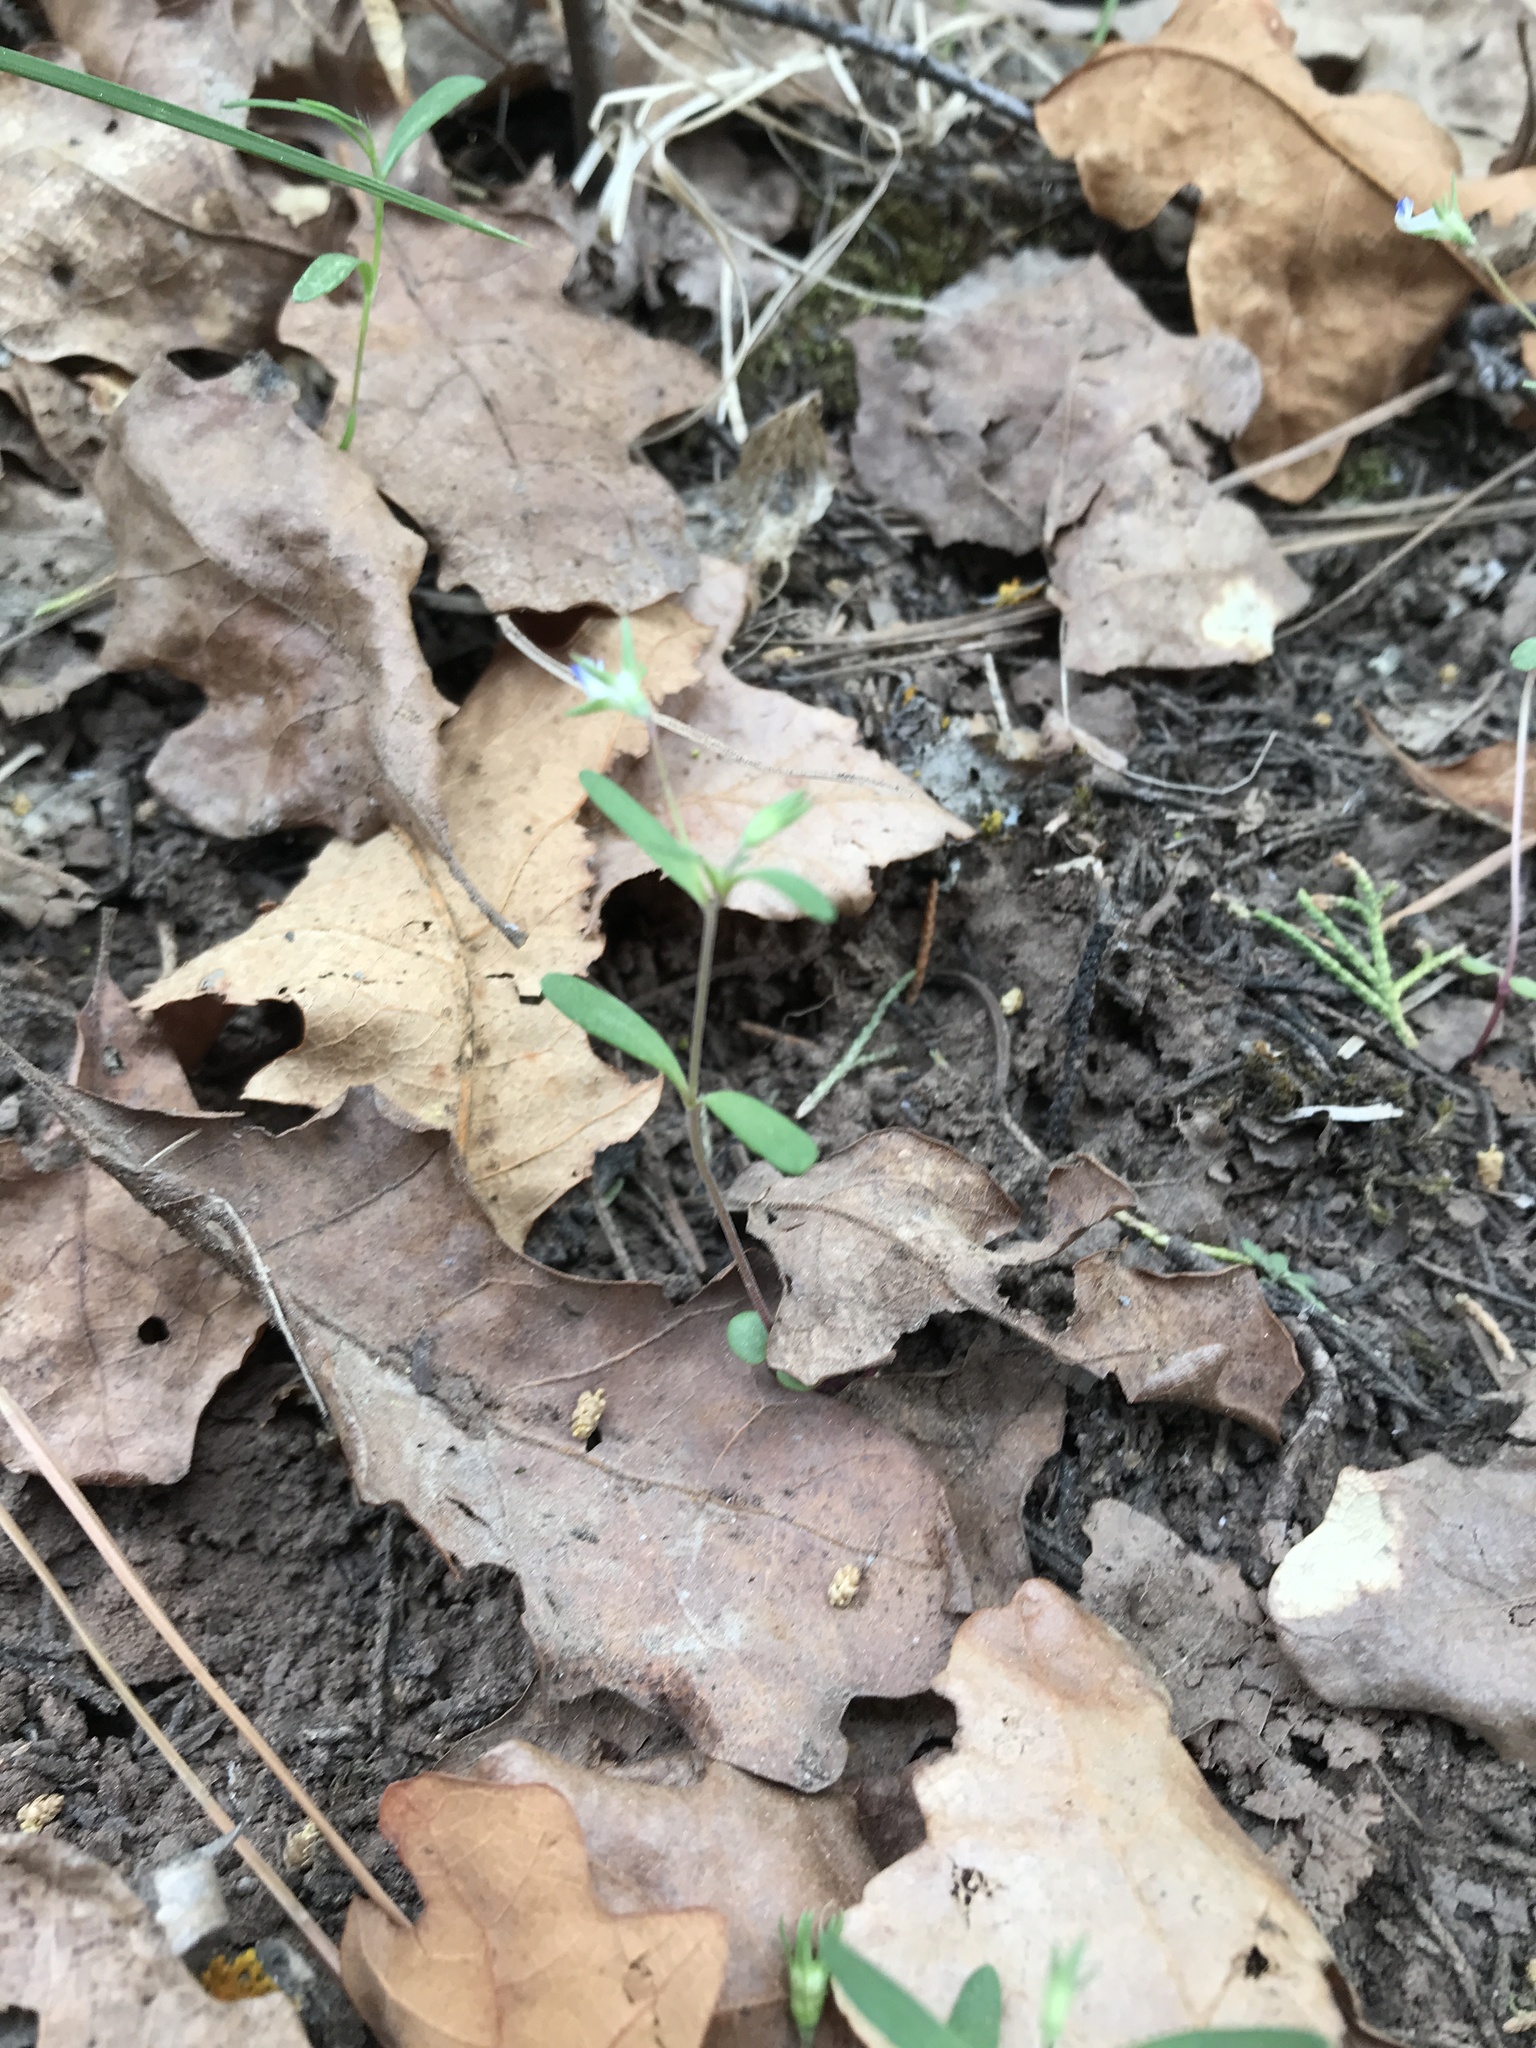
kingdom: Plantae
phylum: Tracheophyta
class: Magnoliopsida
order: Lamiales
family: Plantaginaceae
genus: Collinsia
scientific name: Collinsia parviflora
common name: Blue-lips
